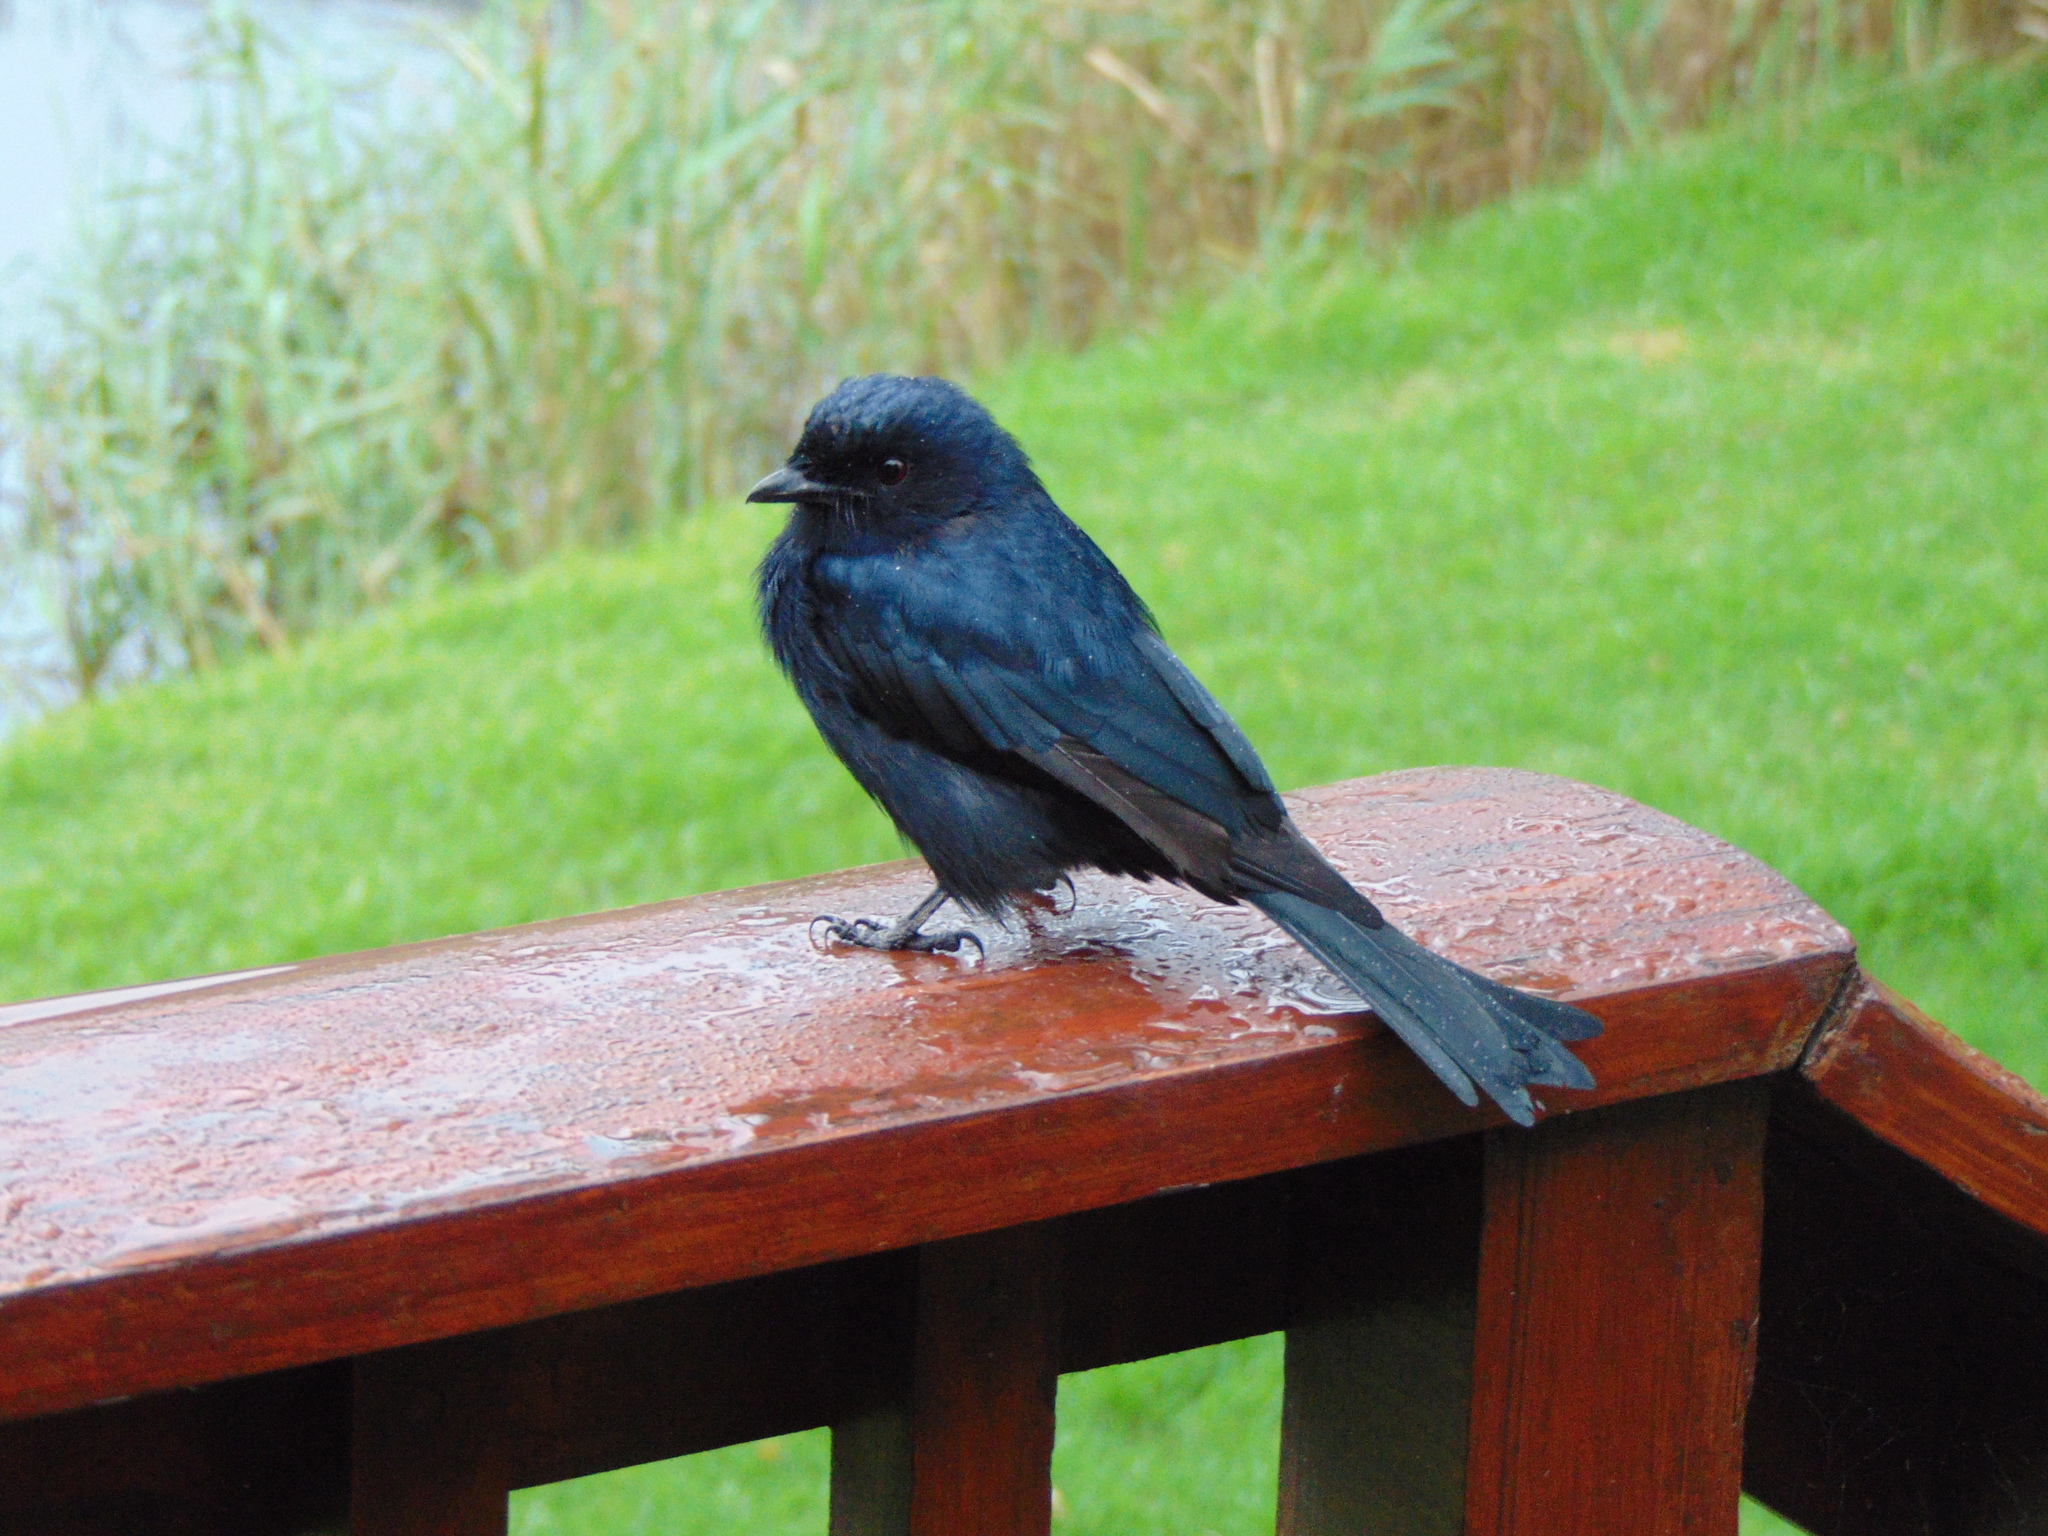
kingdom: Animalia
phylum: Chordata
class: Aves
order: Passeriformes
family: Dicruridae
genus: Dicrurus
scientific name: Dicrurus adsimilis
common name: Fork-tailed drongo
